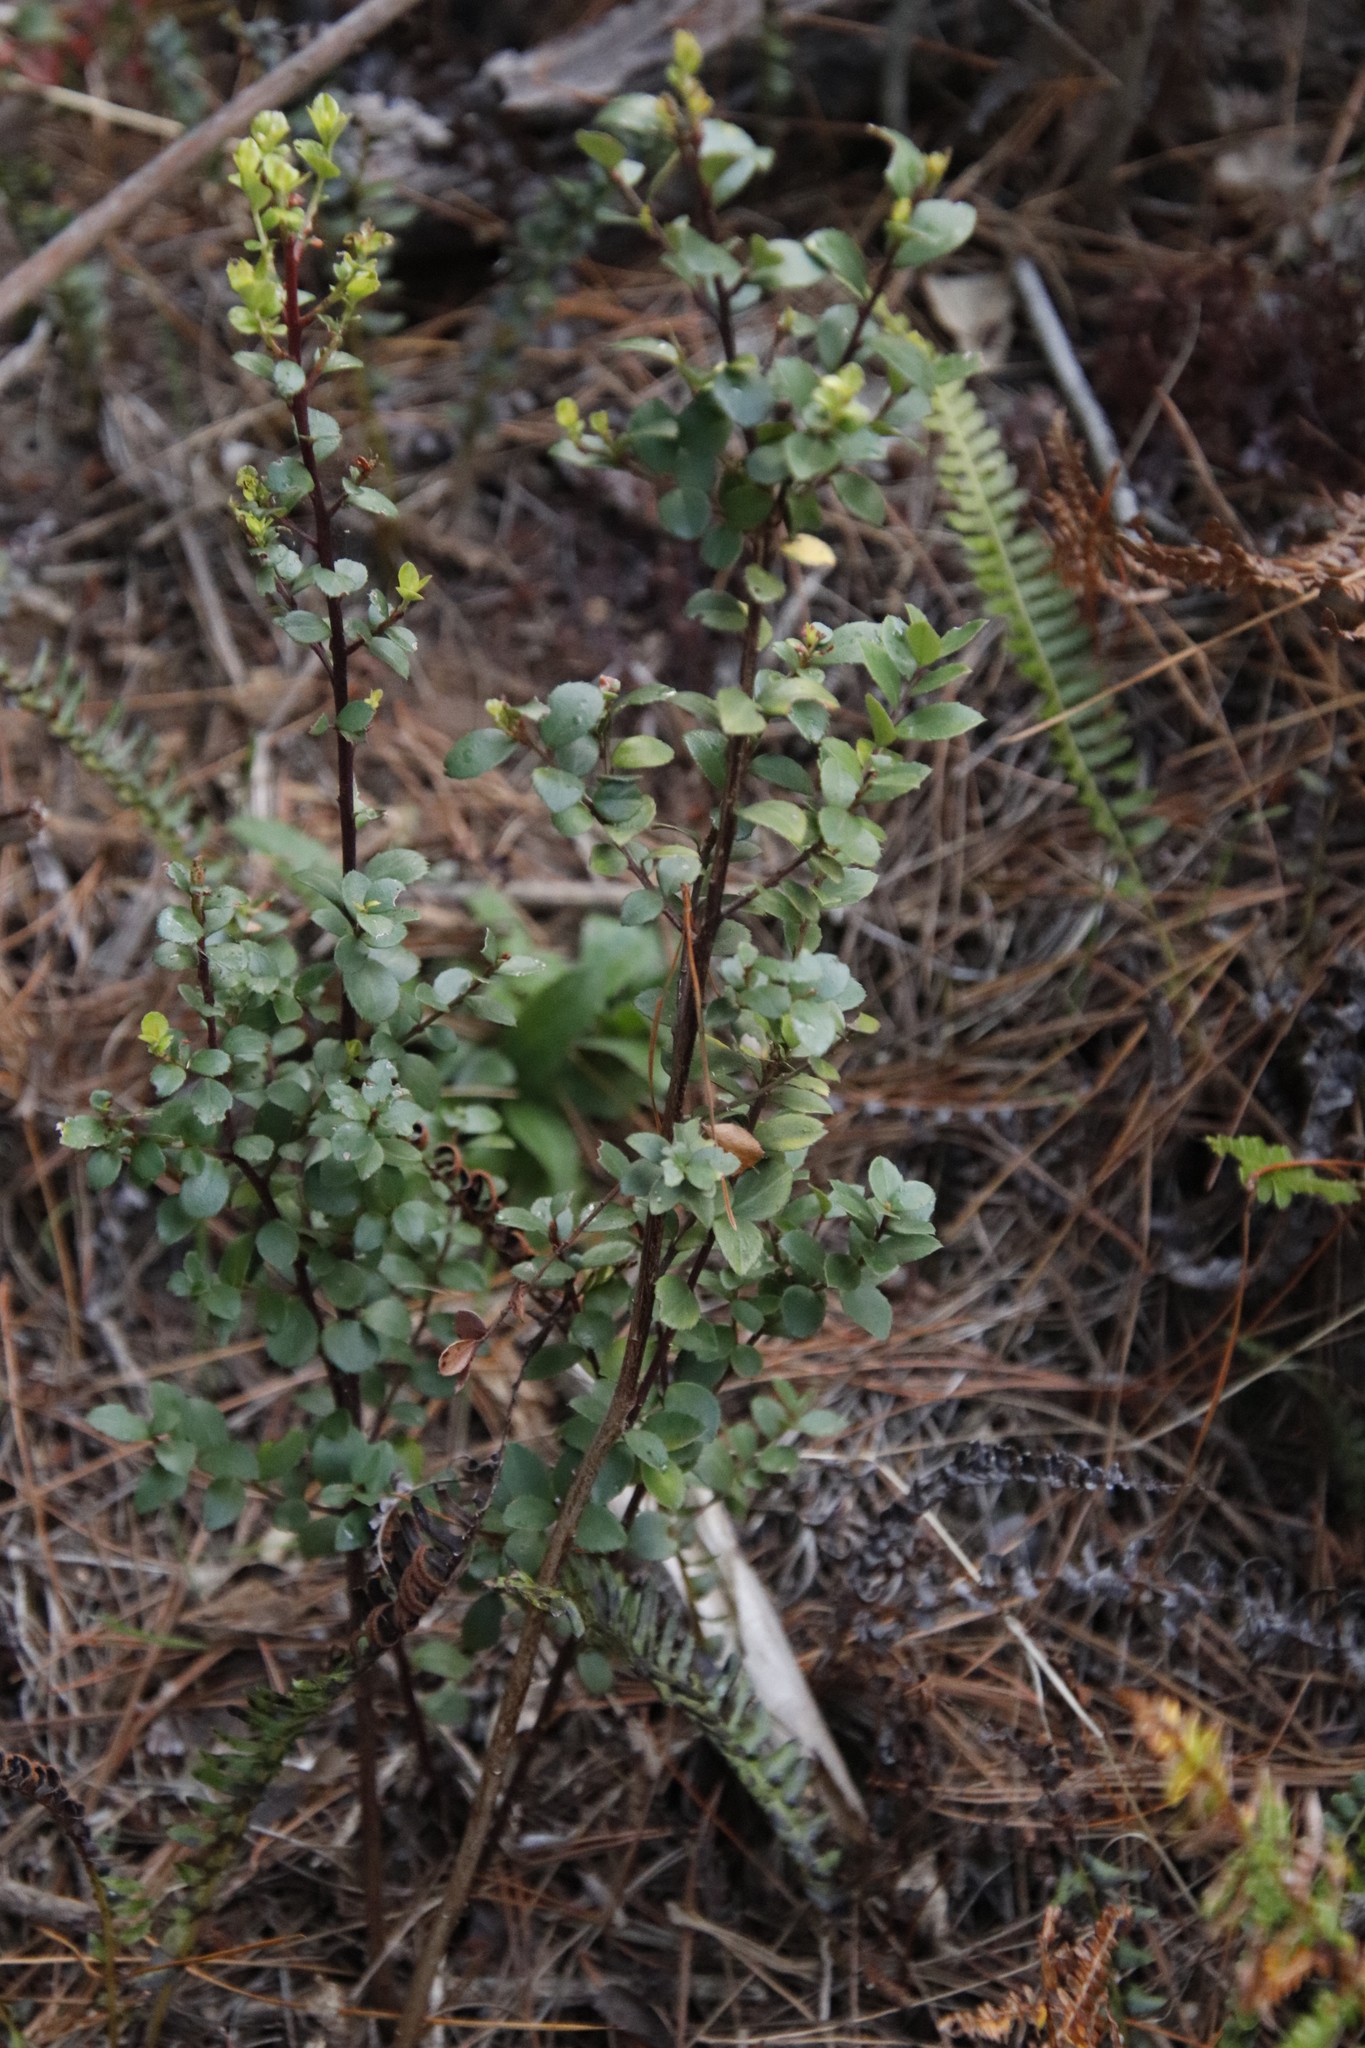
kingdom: Plantae
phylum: Tracheophyta
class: Magnoliopsida
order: Ericales
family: Primulaceae
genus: Myrsine
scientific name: Myrsine africana
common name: African-boxwood
